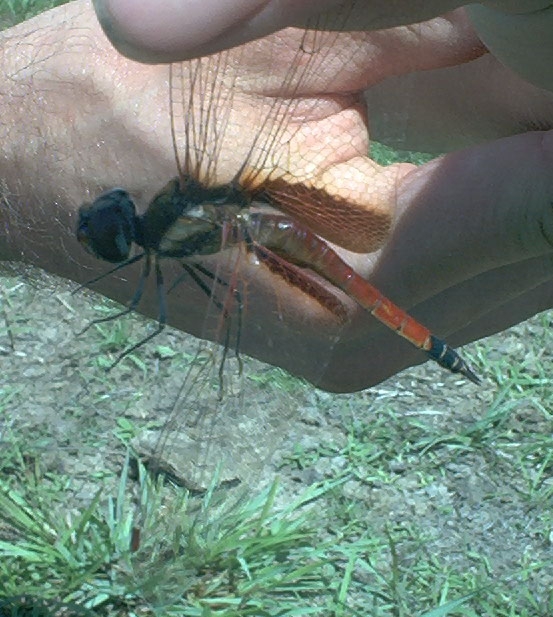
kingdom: Animalia
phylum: Arthropoda
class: Insecta
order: Odonata
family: Libellulidae
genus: Tramea
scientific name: Tramea darwini
